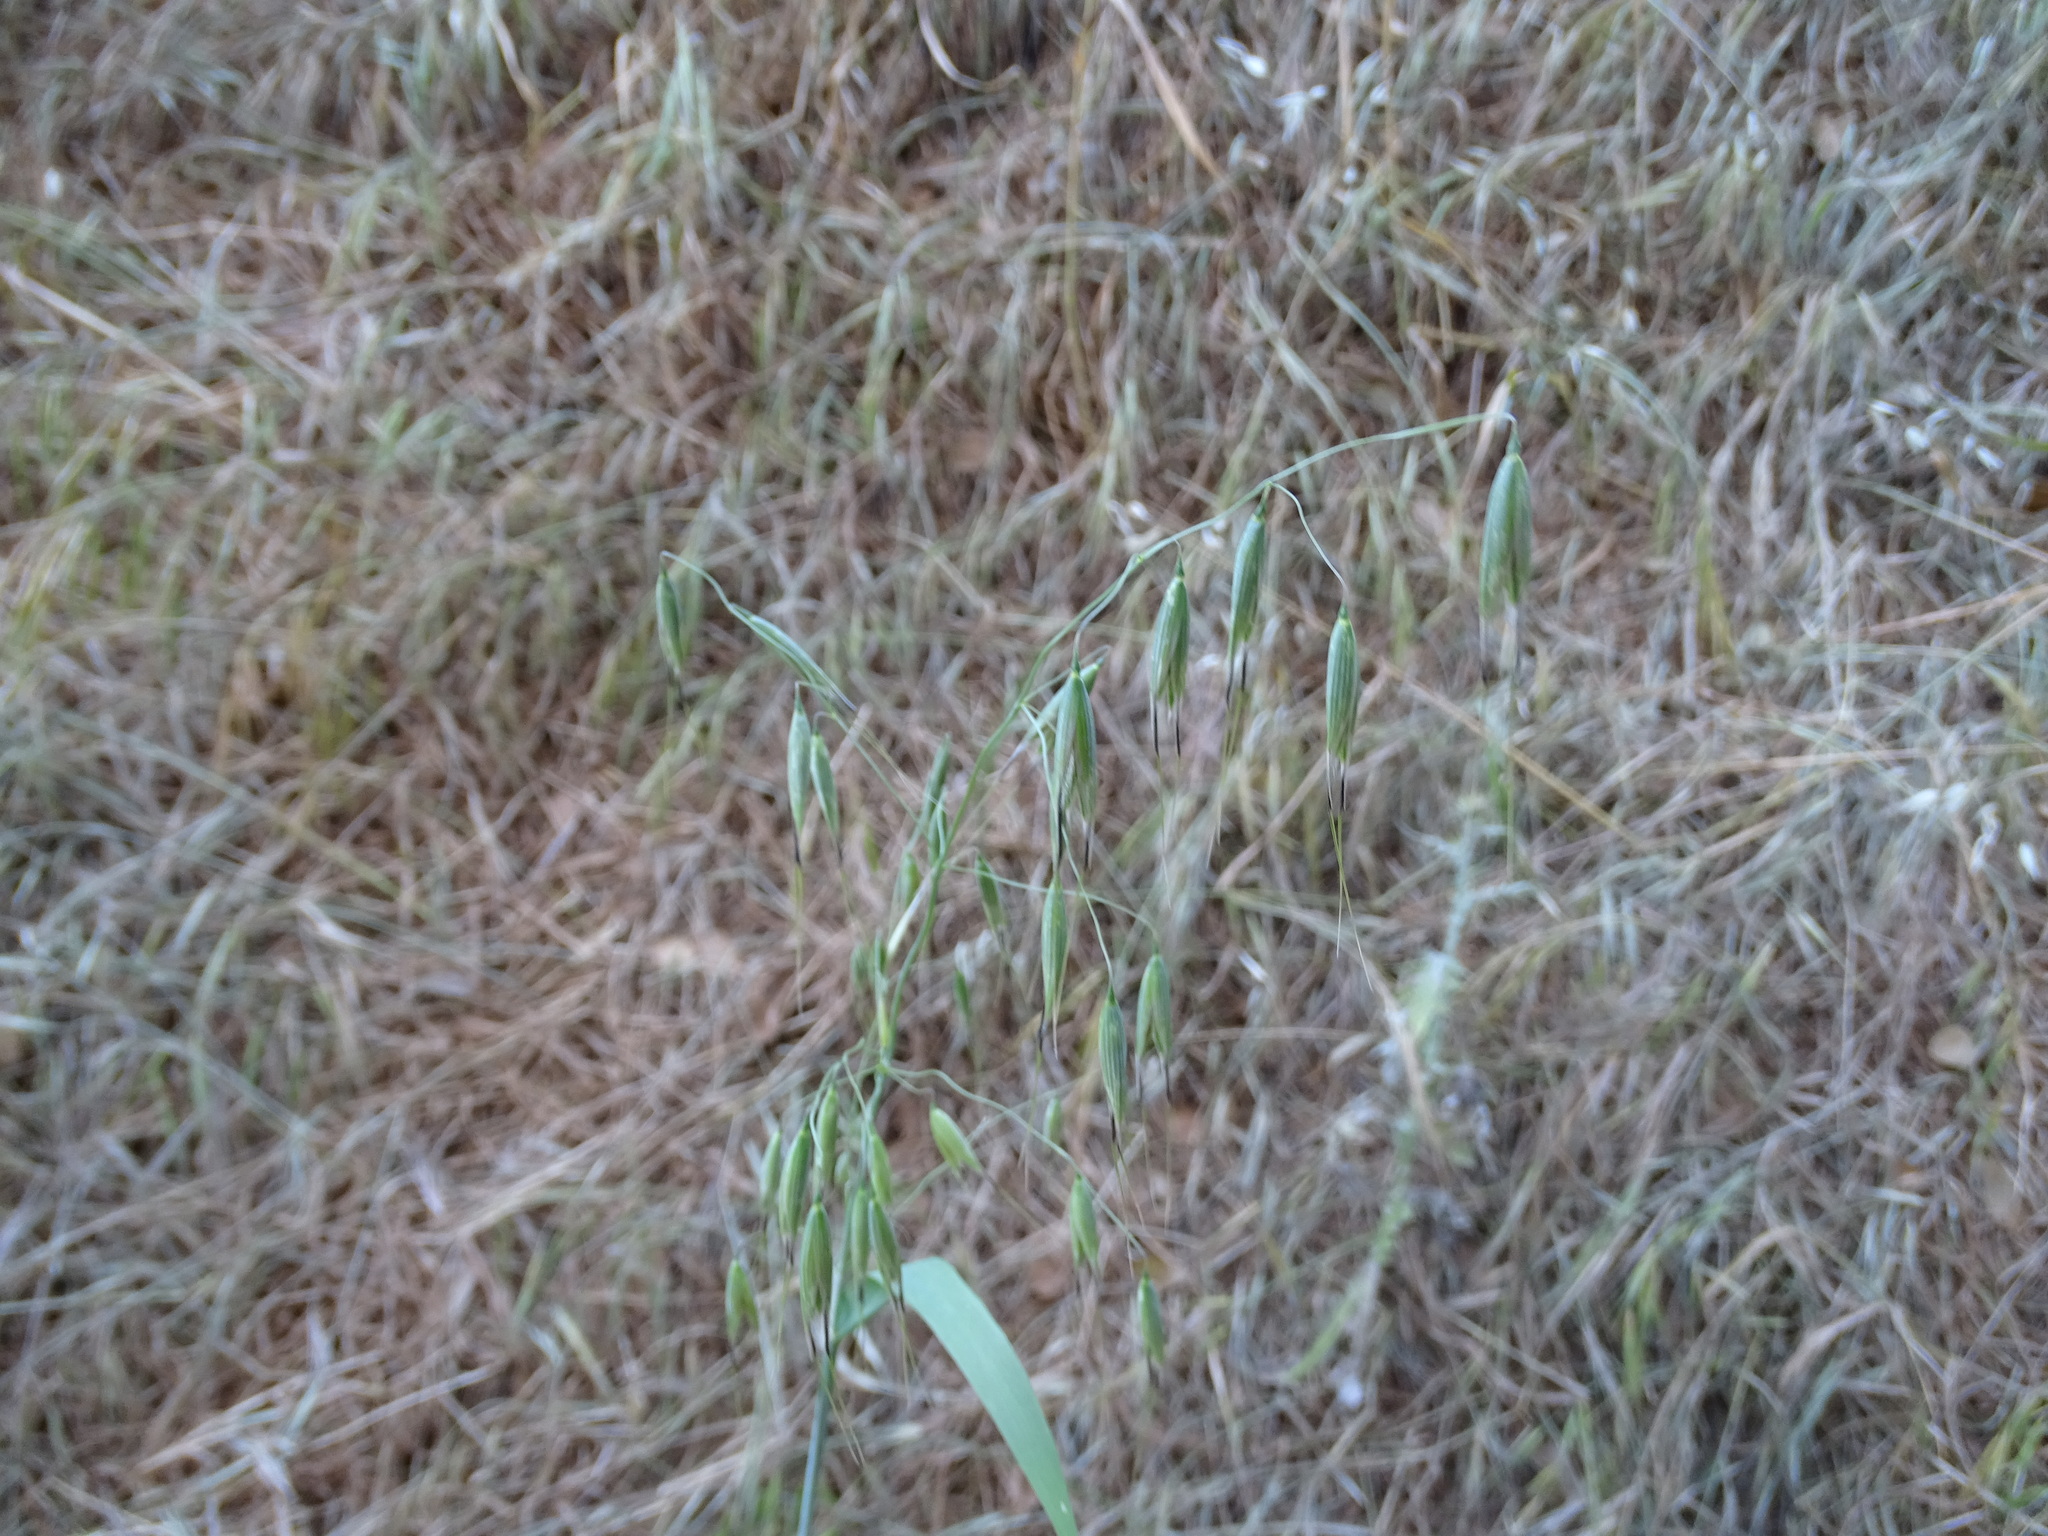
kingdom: Plantae
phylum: Tracheophyta
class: Liliopsida
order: Poales
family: Poaceae
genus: Avena
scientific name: Avena fatua
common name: Wild oat
